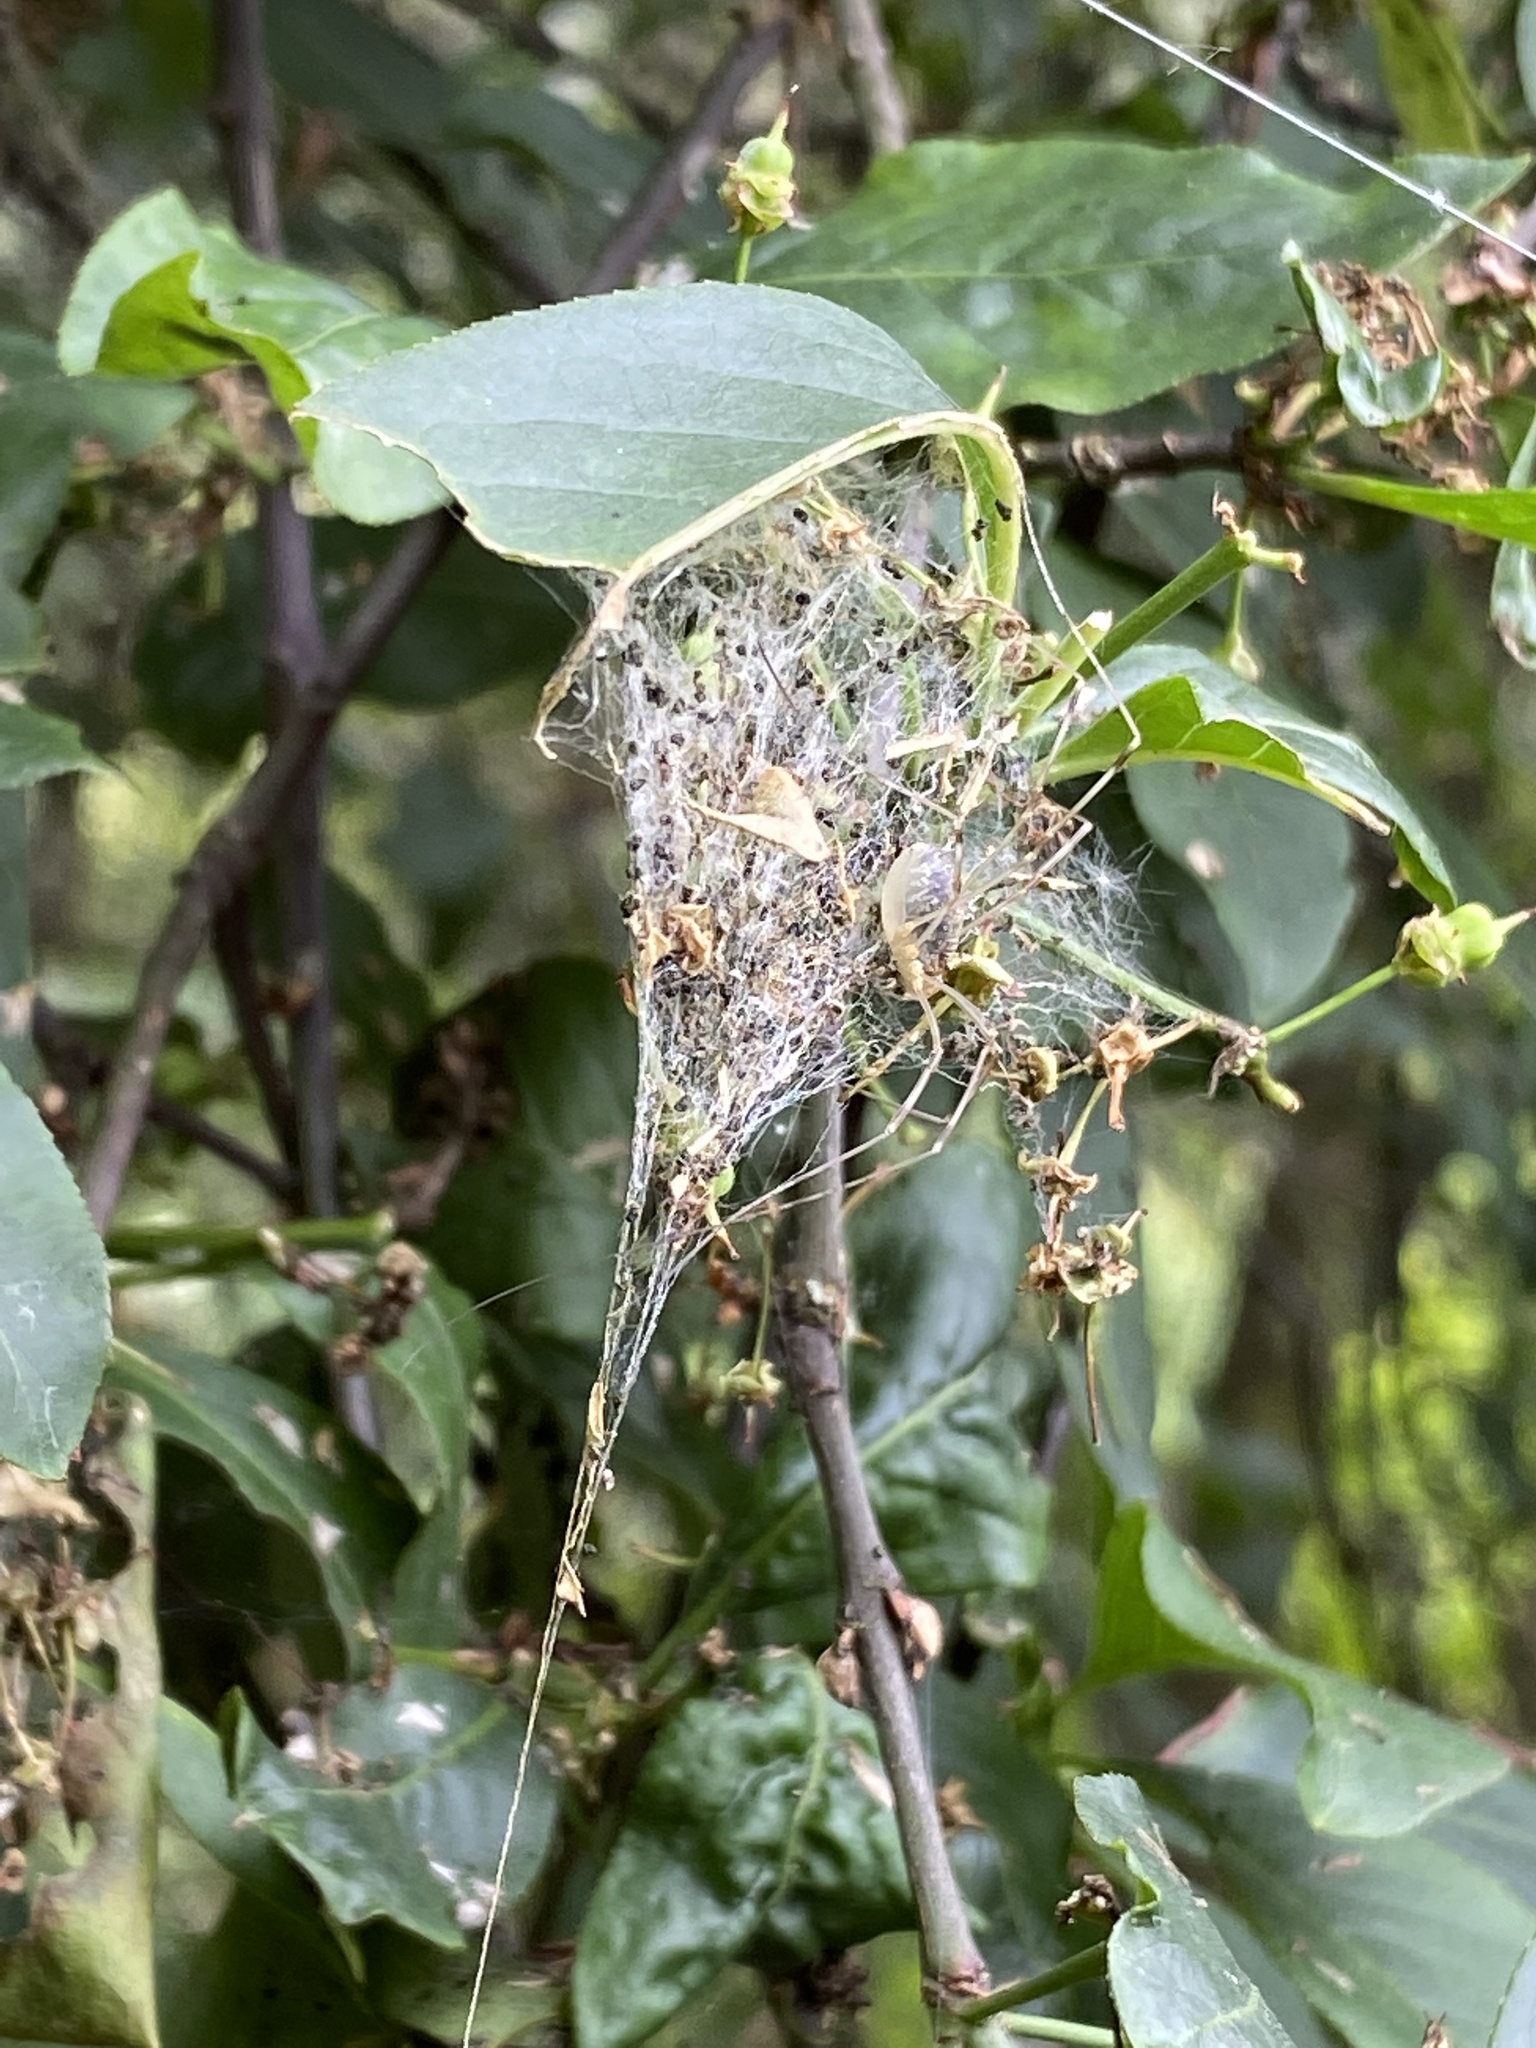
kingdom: Animalia
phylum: Arthropoda
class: Arachnida
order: Opiliones
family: Phalangiidae
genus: Opilio
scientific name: Opilio canestrinii
